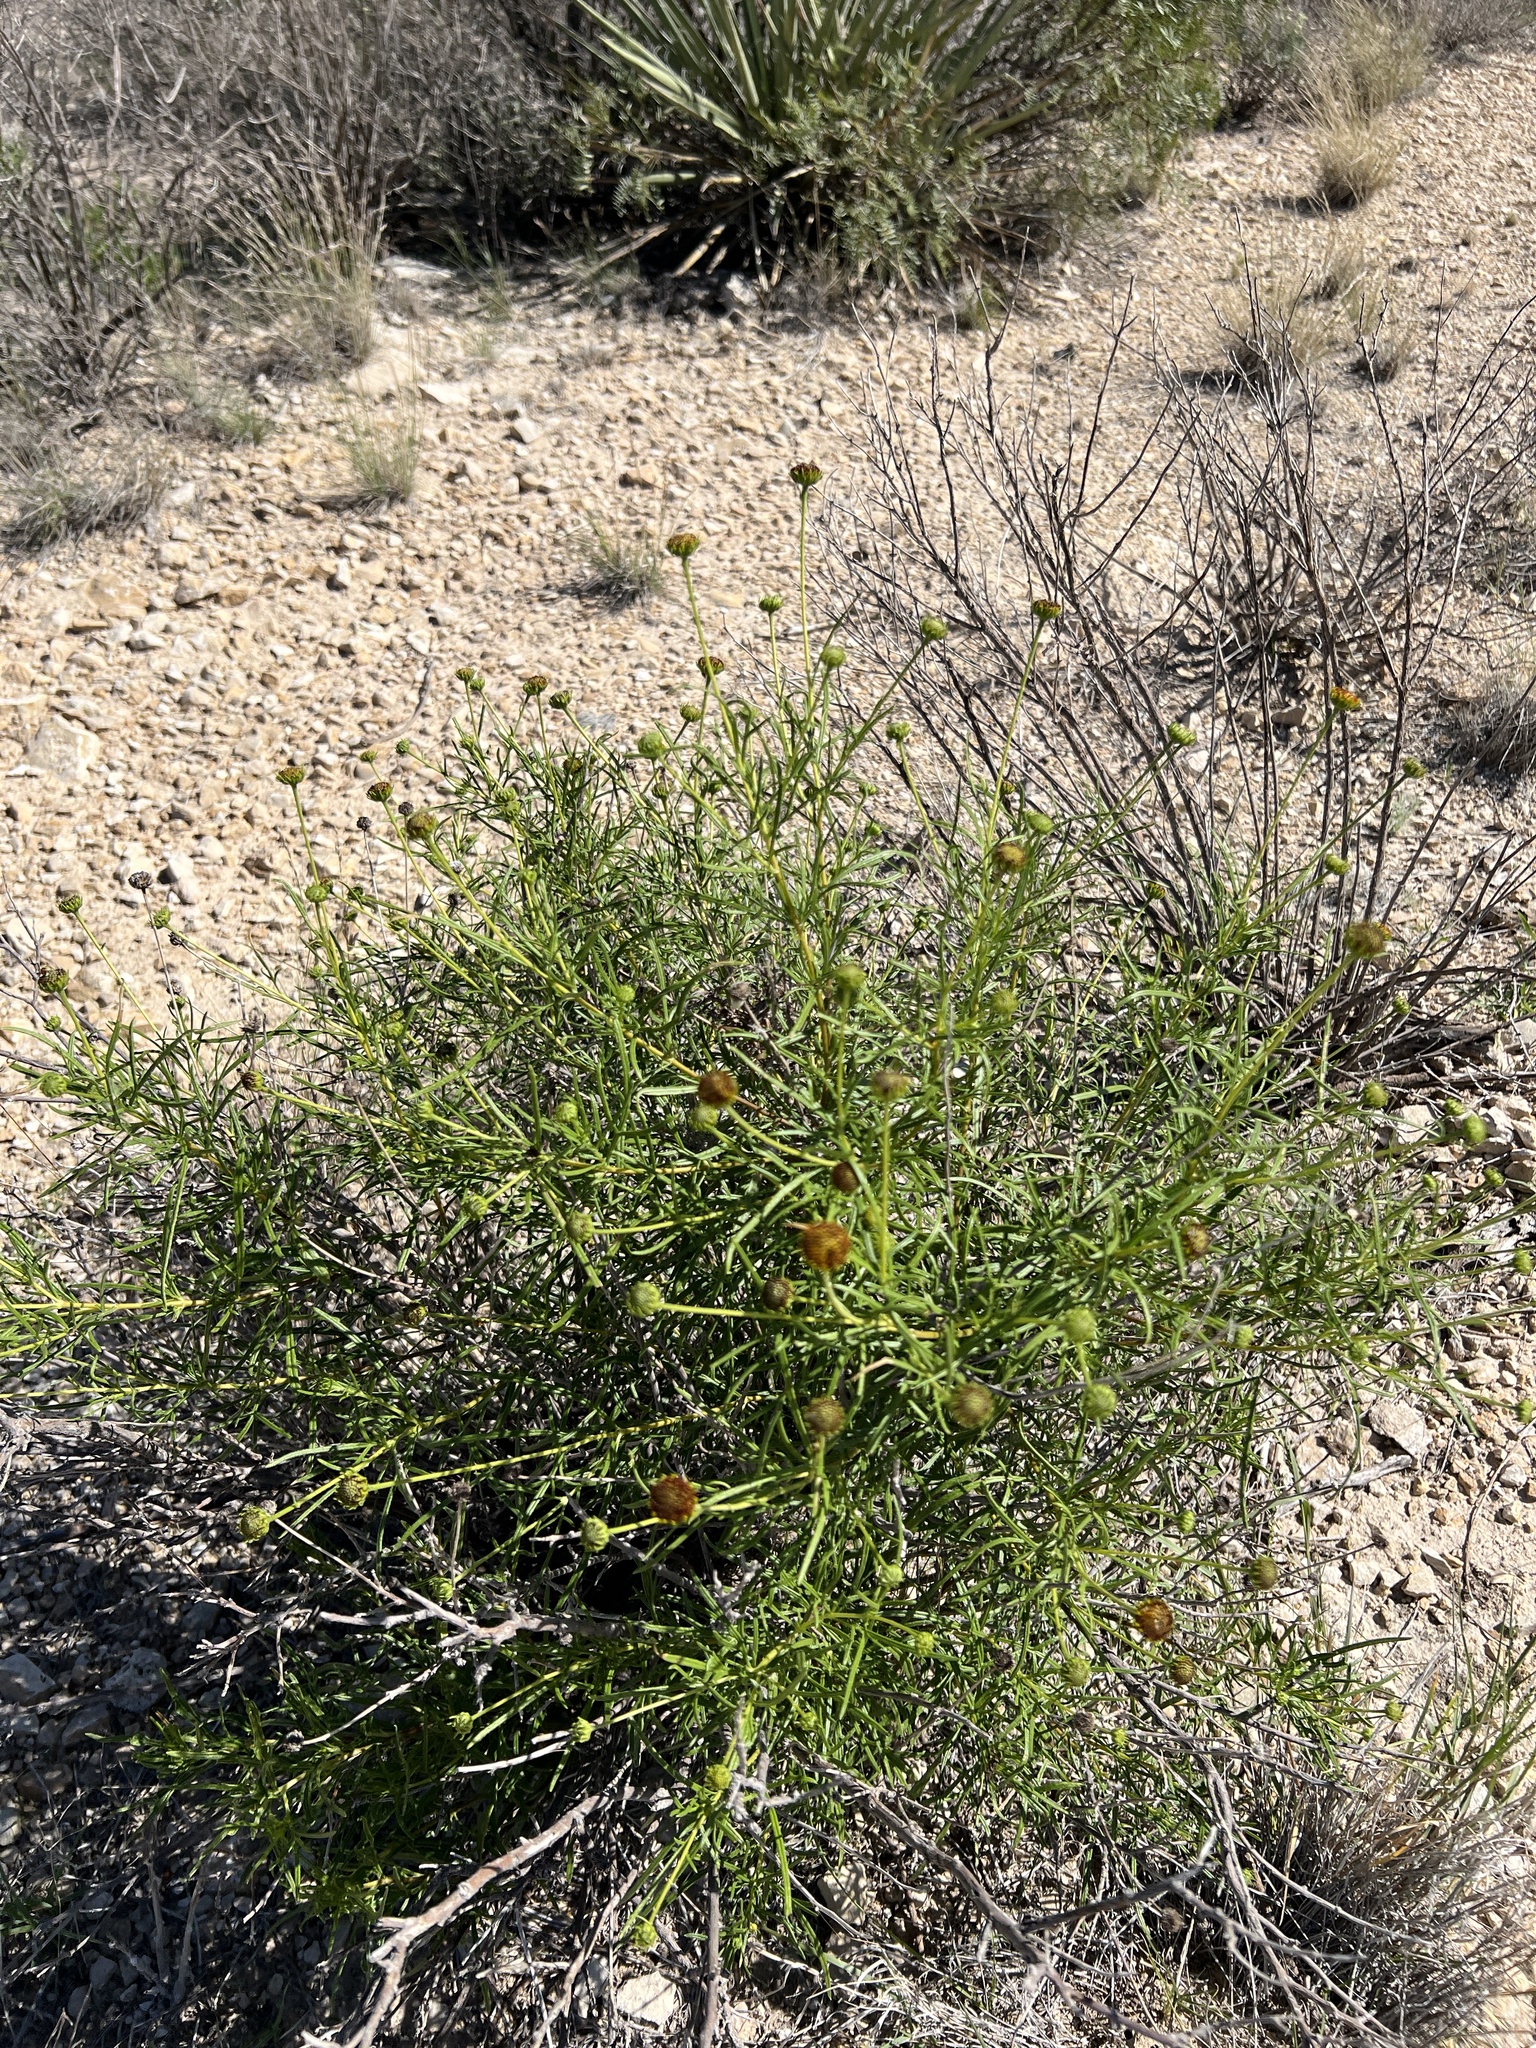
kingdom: Plantae
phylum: Tracheophyta
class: Magnoliopsida
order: Asterales
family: Asteraceae
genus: Sidneya
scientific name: Sidneya tenuifolia
